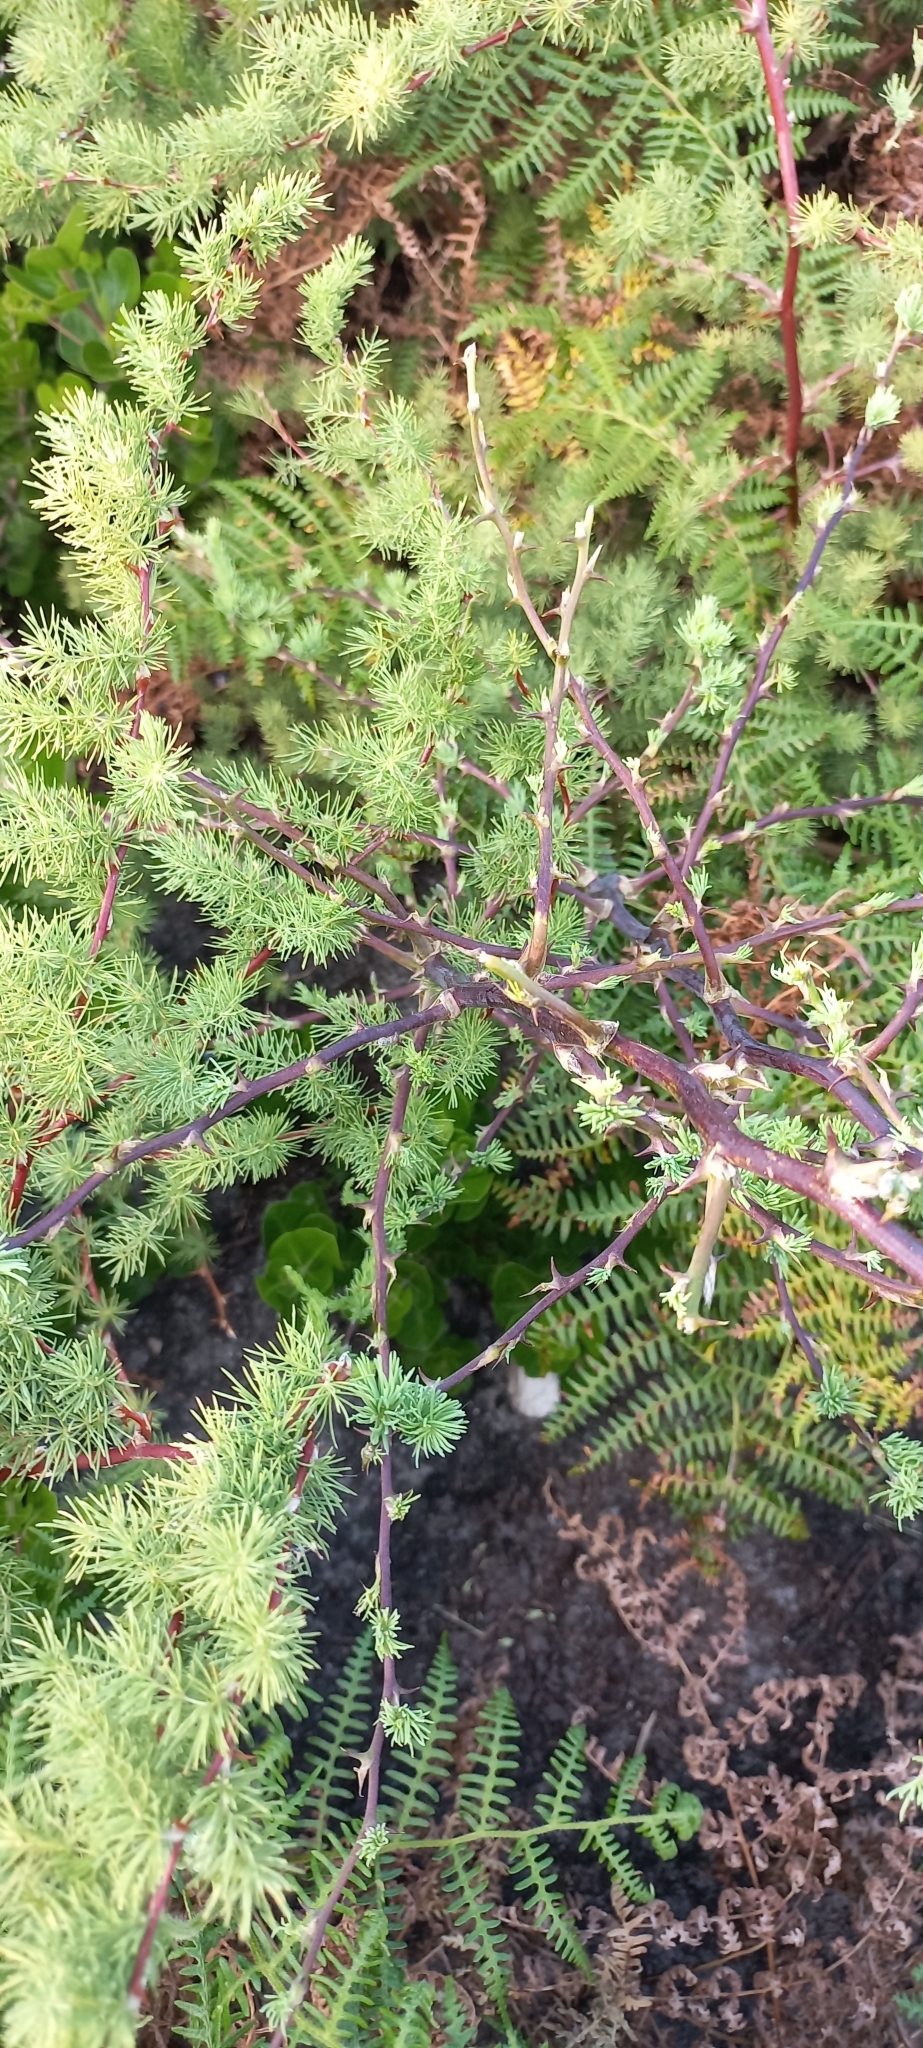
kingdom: Plantae
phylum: Tracheophyta
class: Liliopsida
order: Asparagales
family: Asparagaceae
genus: Asparagus
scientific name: Asparagus rubicundus
